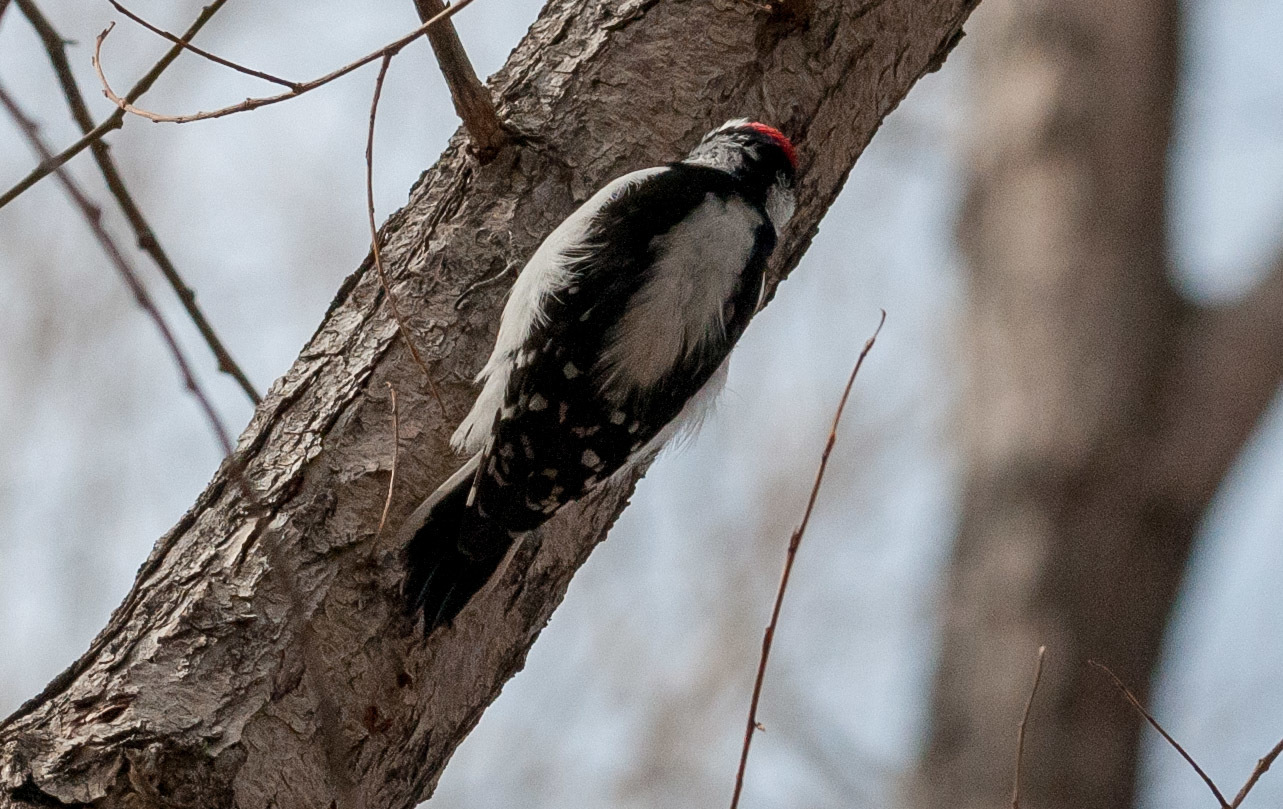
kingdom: Animalia
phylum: Chordata
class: Aves
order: Piciformes
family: Picidae
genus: Dryobates
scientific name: Dryobates pubescens
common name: Downy woodpecker
